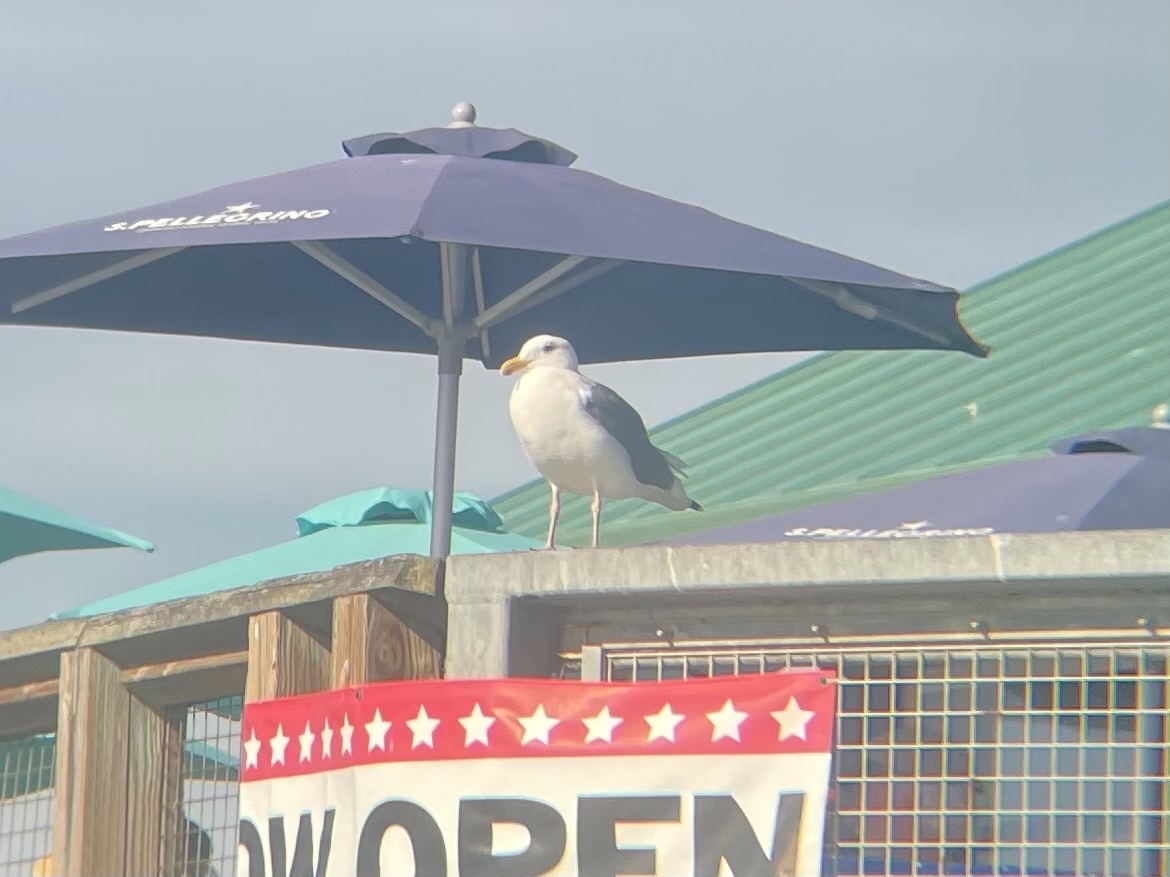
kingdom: Animalia
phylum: Chordata
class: Aves
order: Charadriiformes
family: Laridae
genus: Larus
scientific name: Larus occidentalis
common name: Western gull
